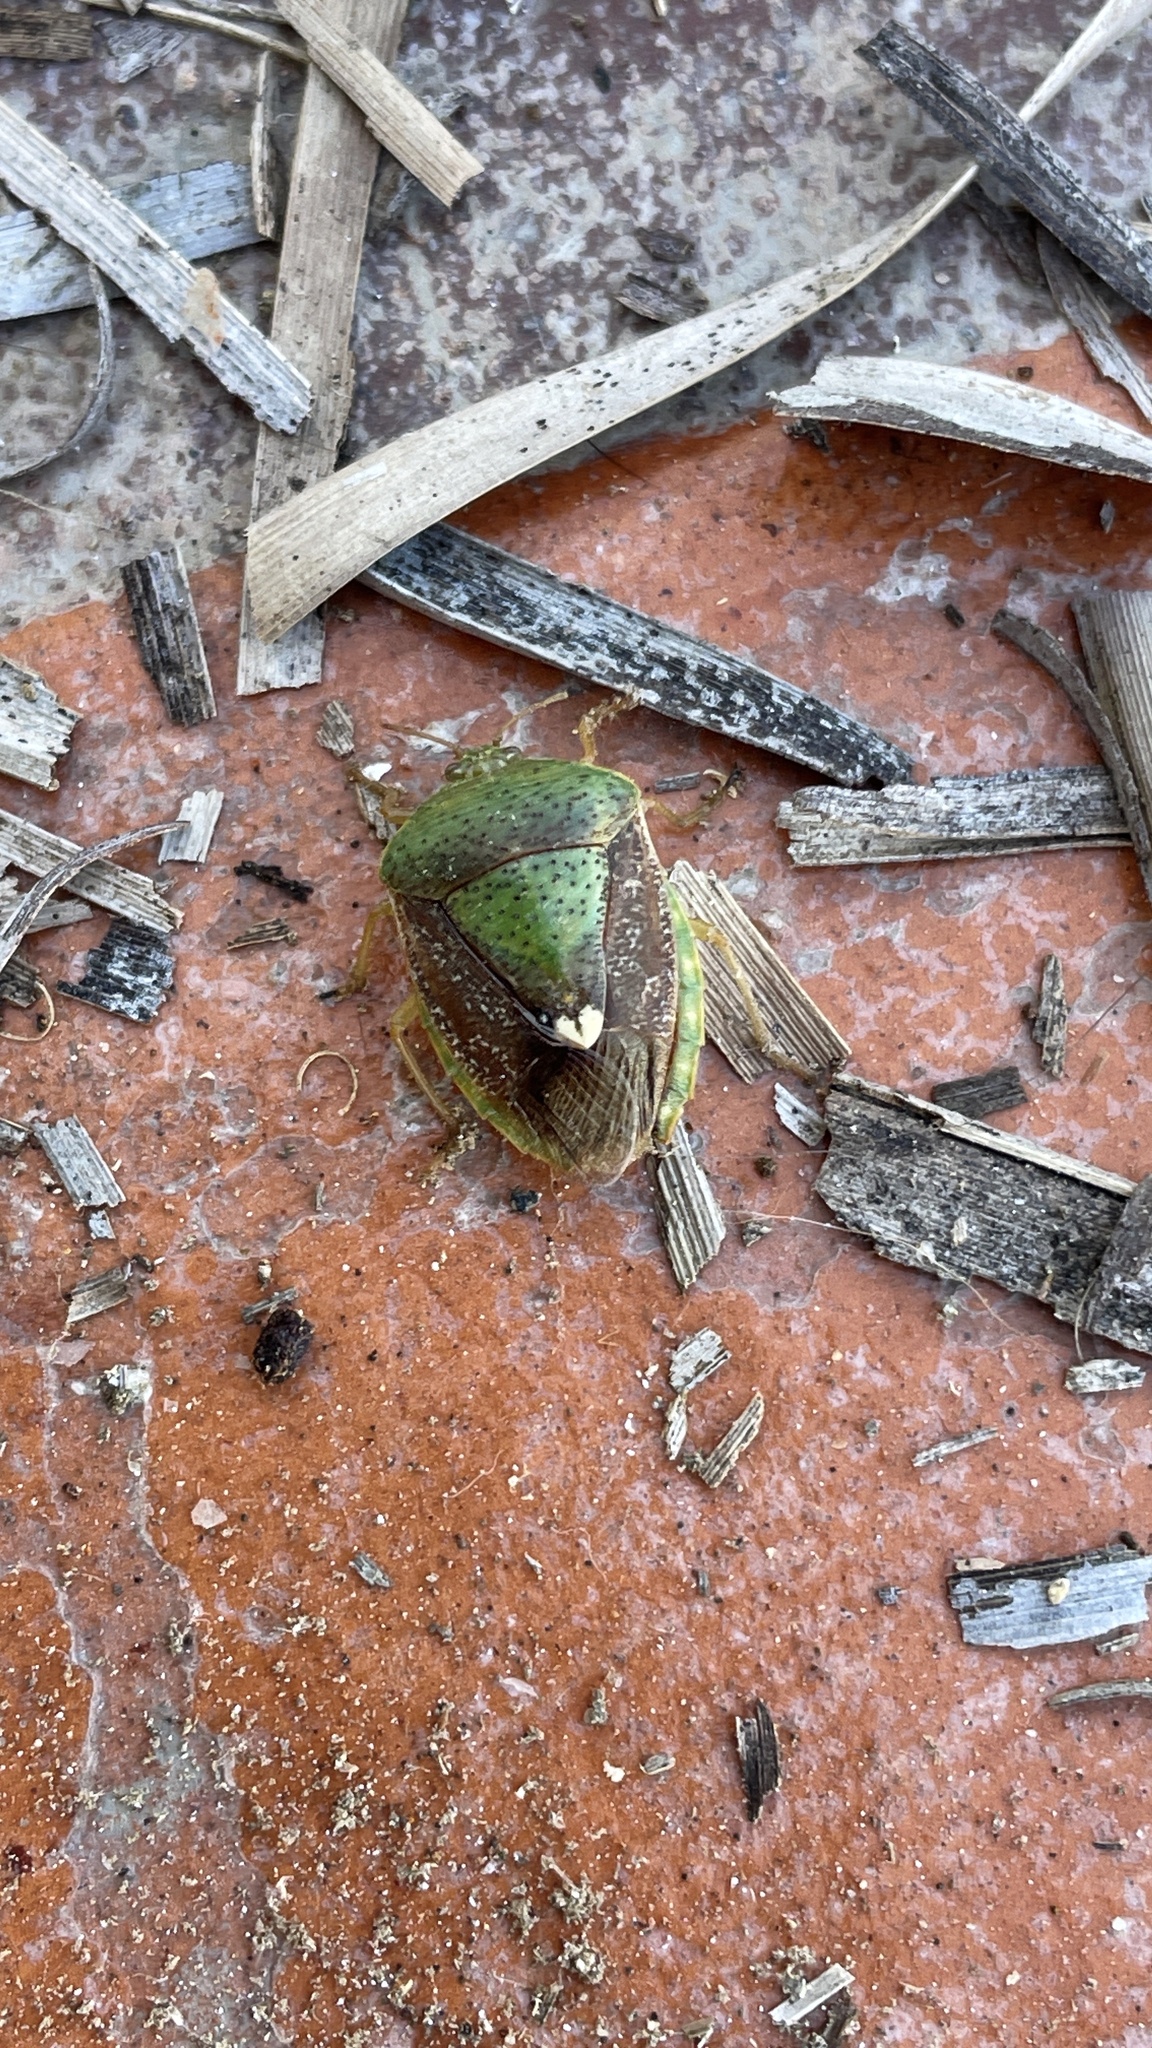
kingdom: Animalia
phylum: Arthropoda
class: Insecta
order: Hemiptera
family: Pentatomidae
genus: Edessa
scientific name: Edessa bifida
